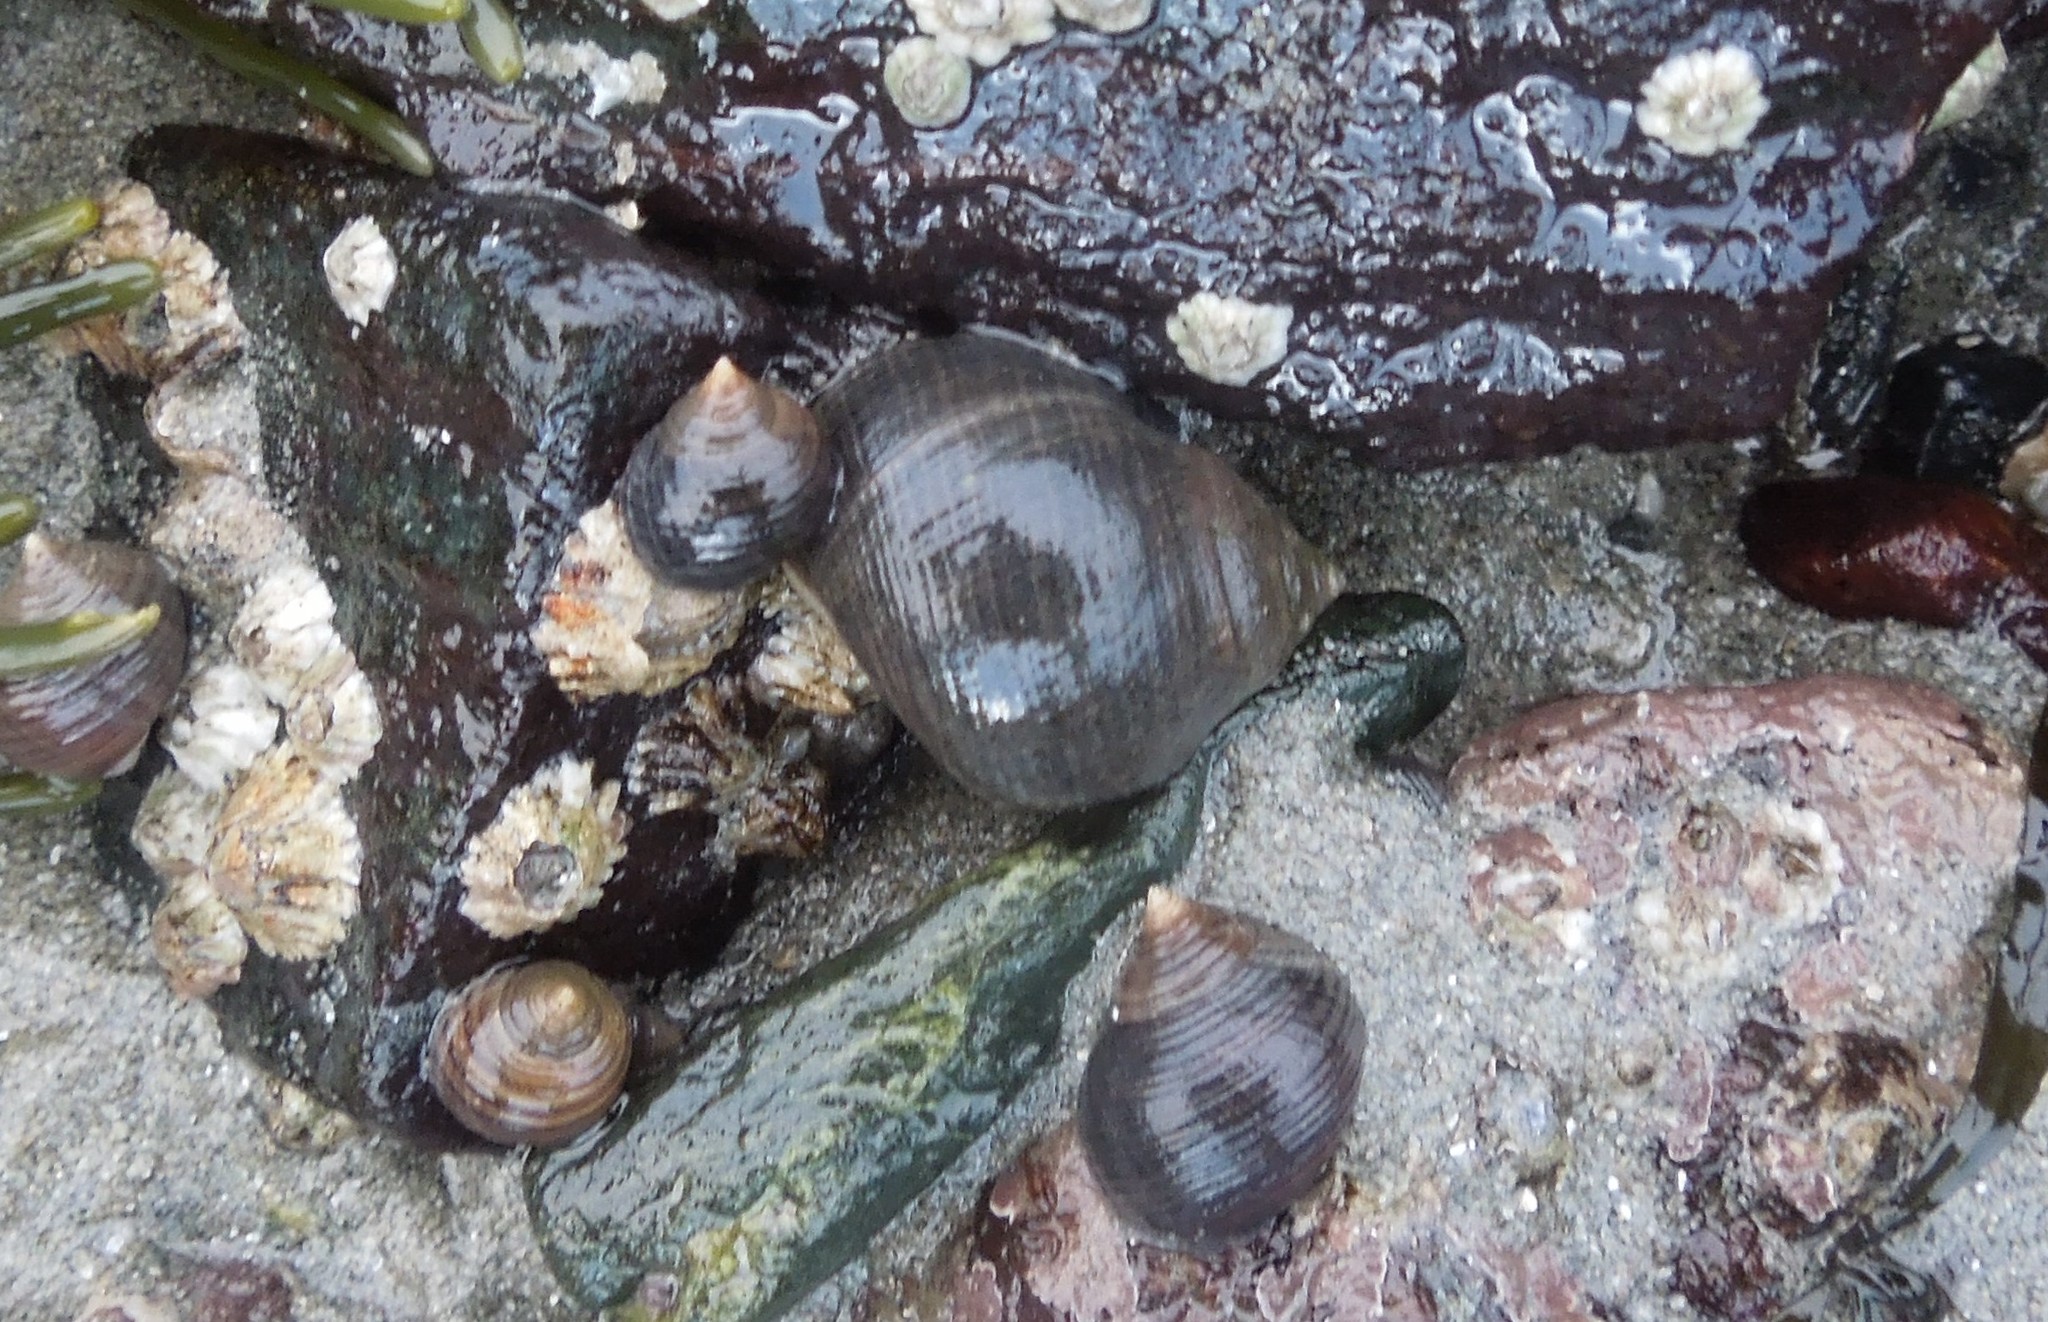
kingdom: Animalia
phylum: Mollusca
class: Gastropoda
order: Littorinimorpha
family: Littorinidae
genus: Littorina
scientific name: Littorina littorea
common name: Common periwinkle
